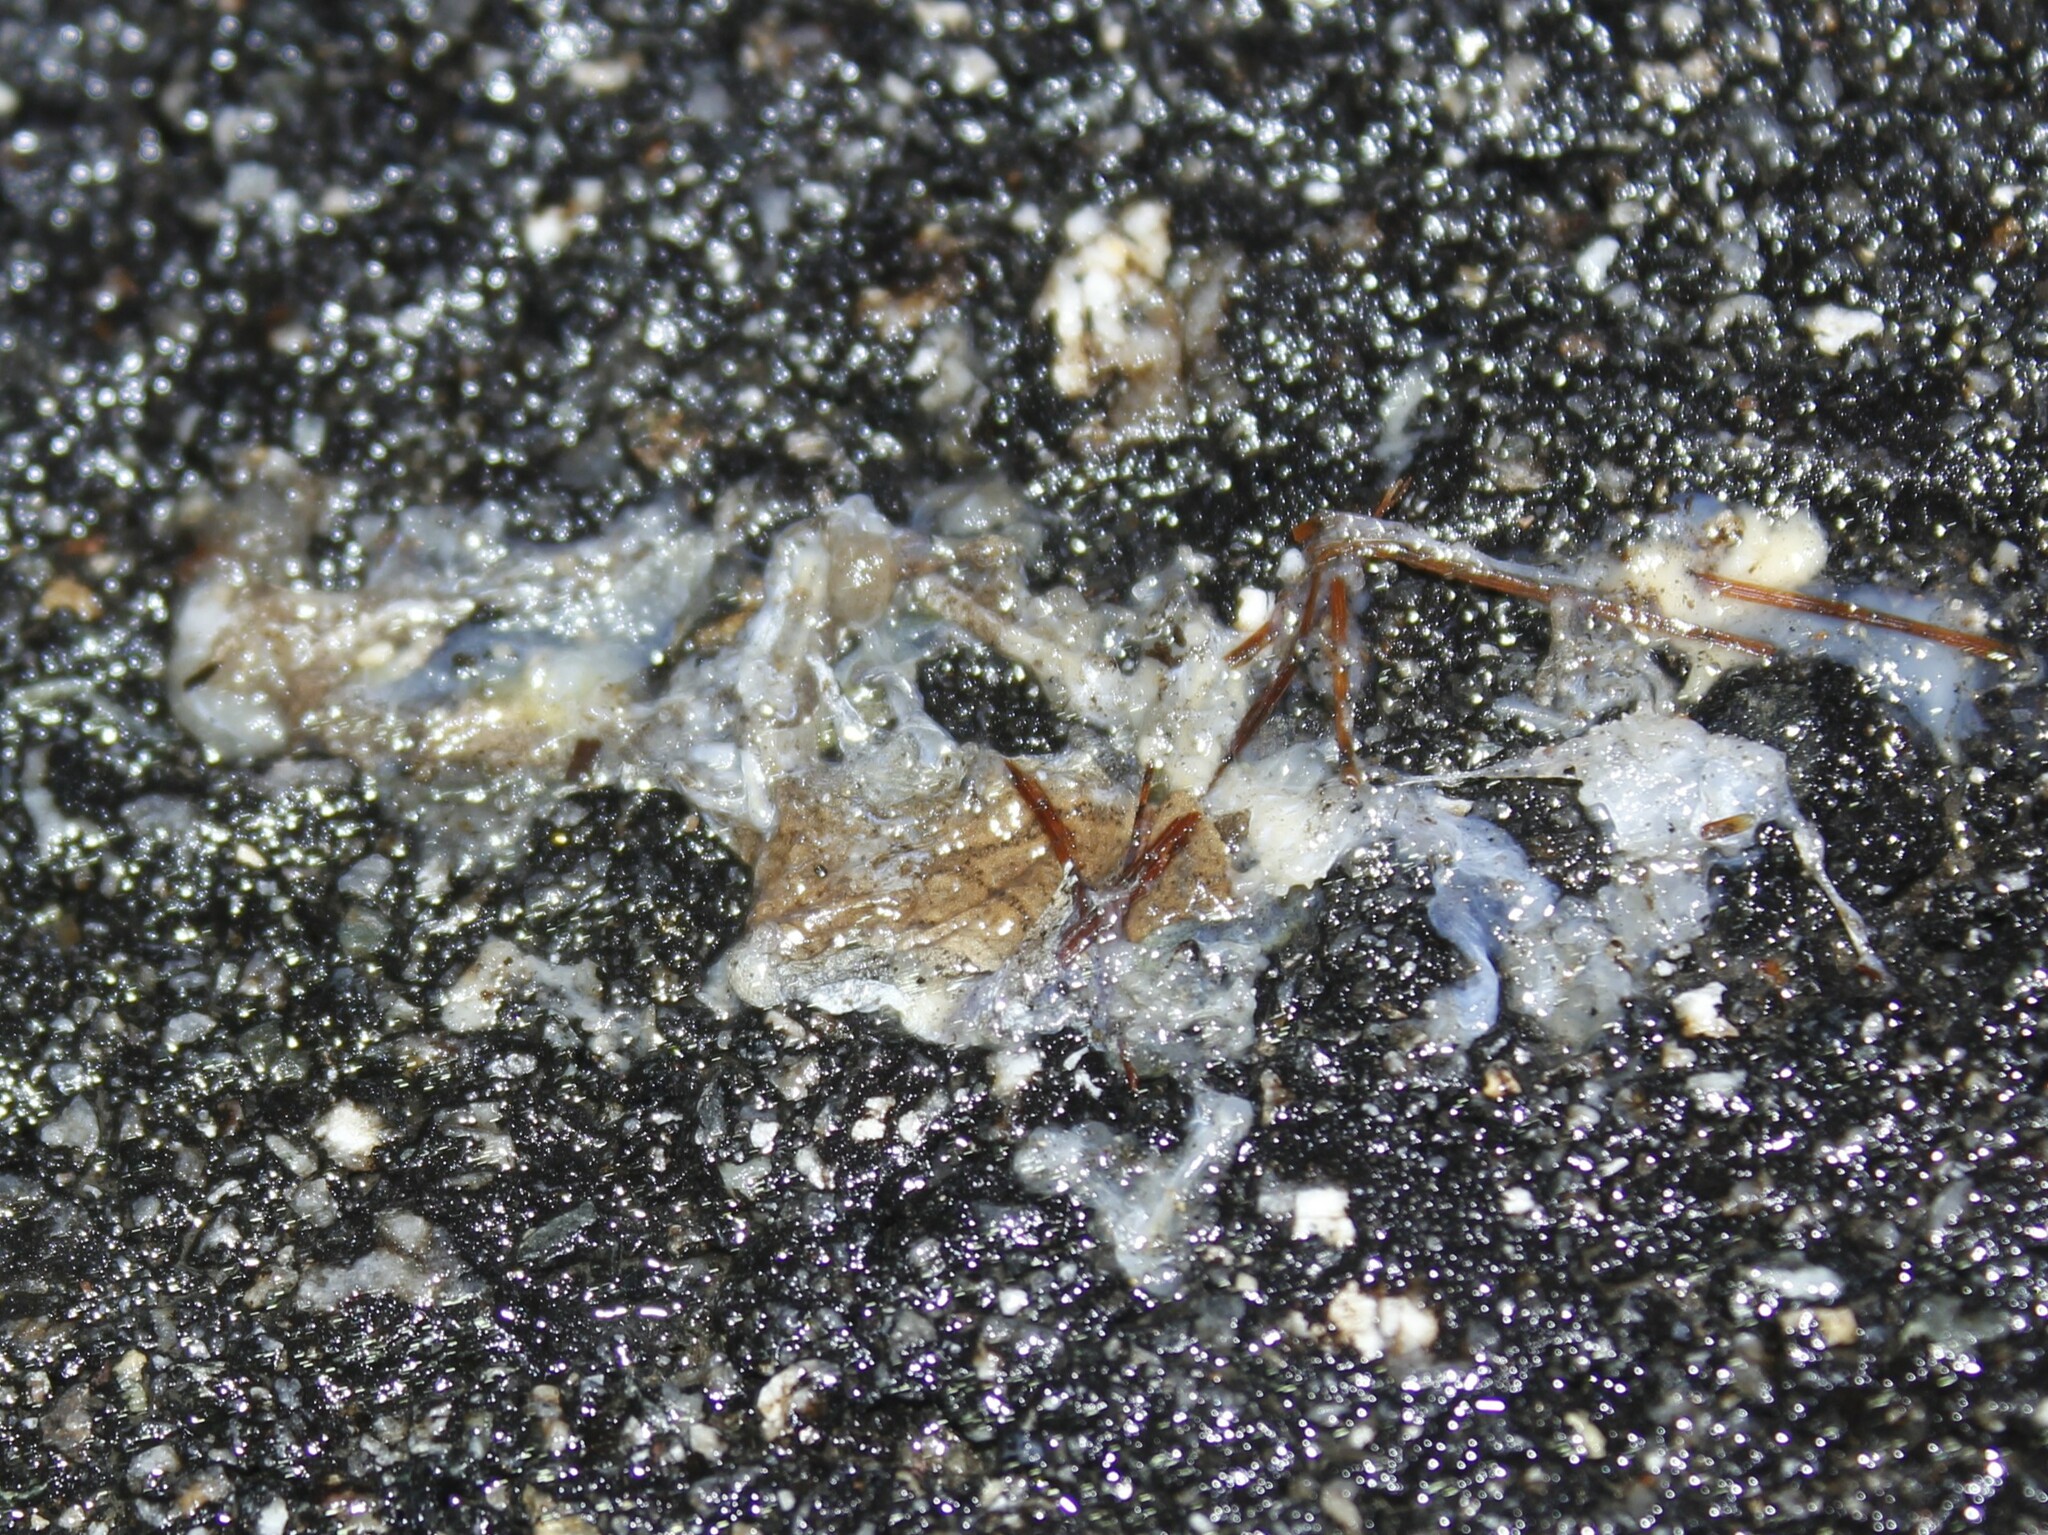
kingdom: Animalia
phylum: Chordata
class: Amphibia
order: Anura
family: Hylidae
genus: Pseudacris
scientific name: Pseudacris crucifer
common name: Spring peeper
